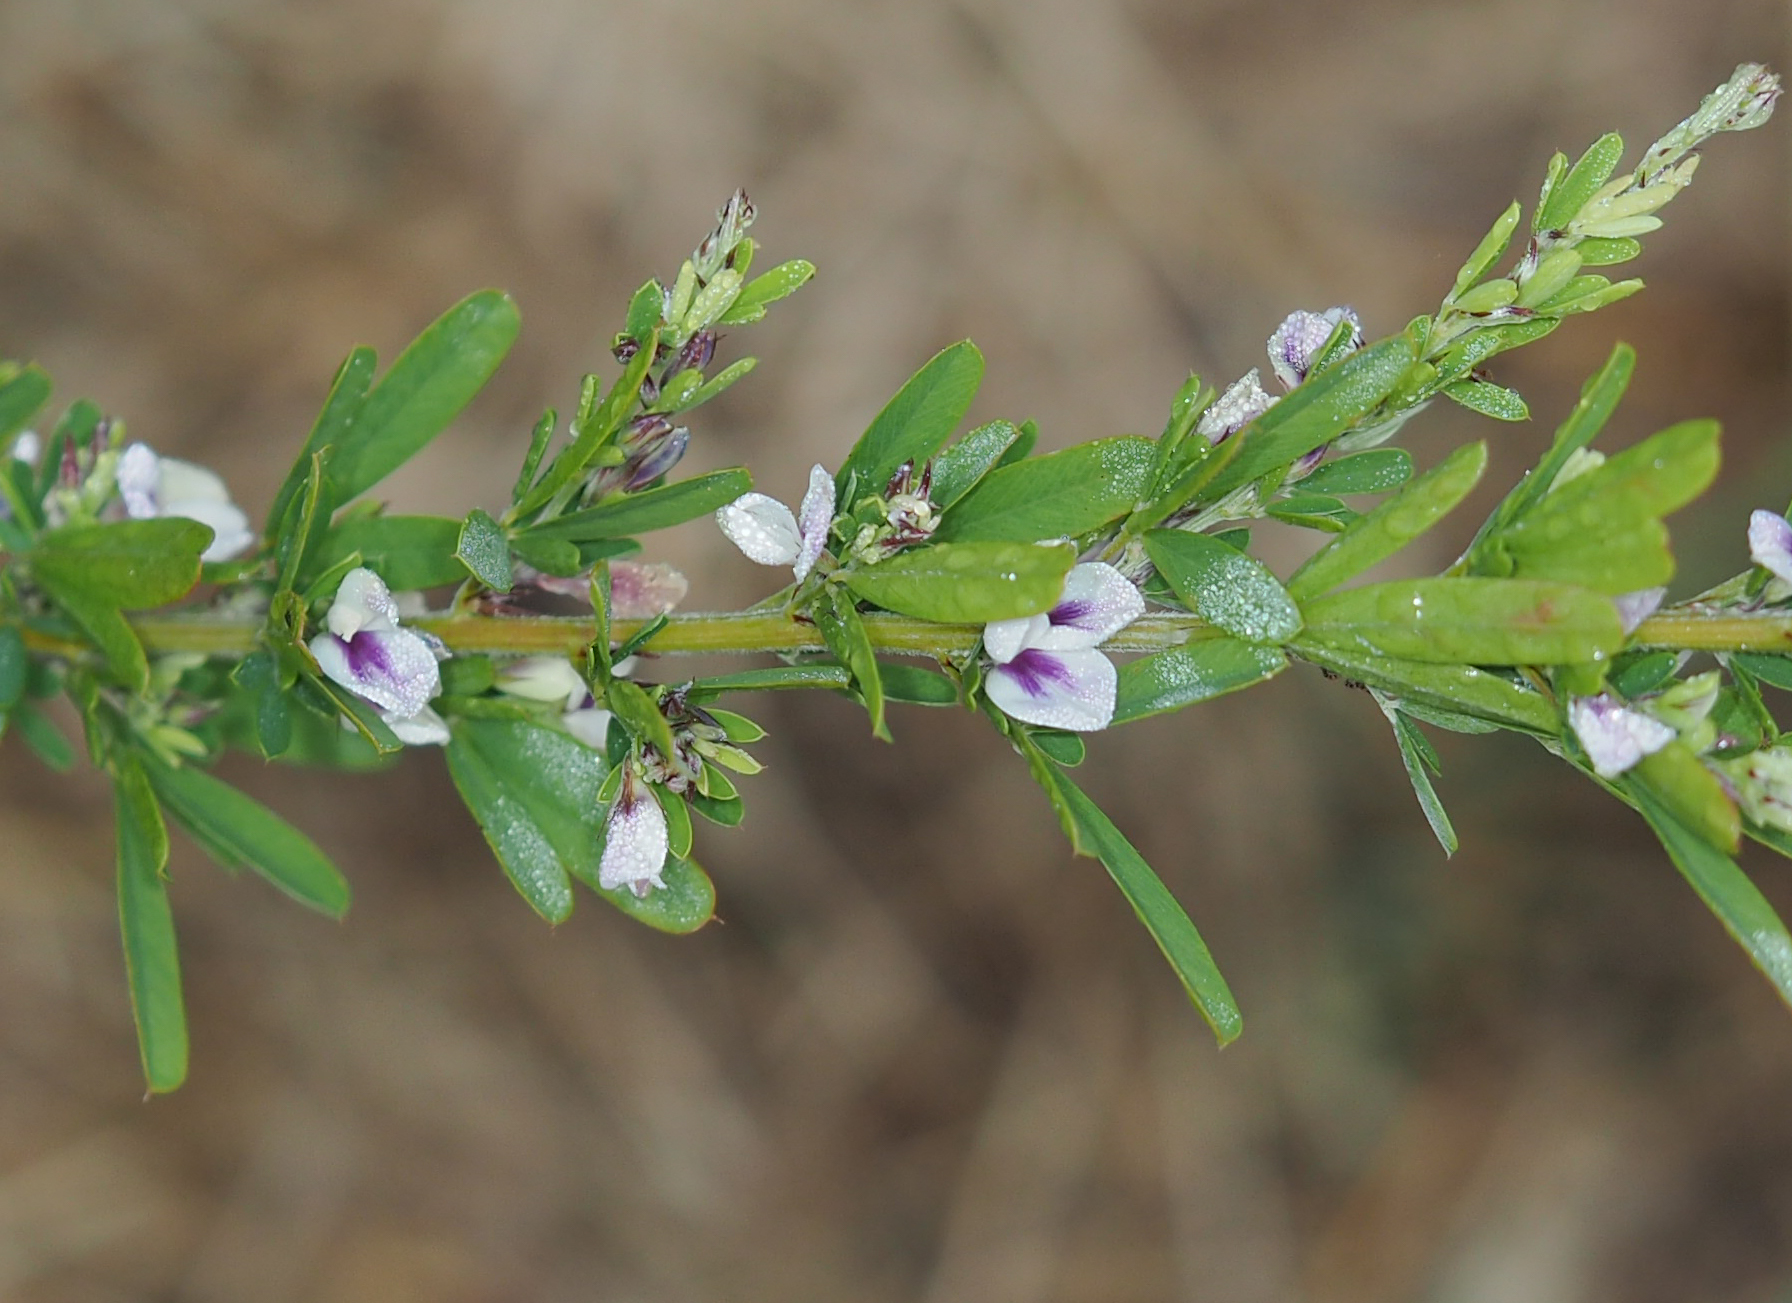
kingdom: Plantae
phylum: Tracheophyta
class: Magnoliopsida
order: Fabales
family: Fabaceae
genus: Lespedeza
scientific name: Lespedeza cuneata
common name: Chinese bush-clover
